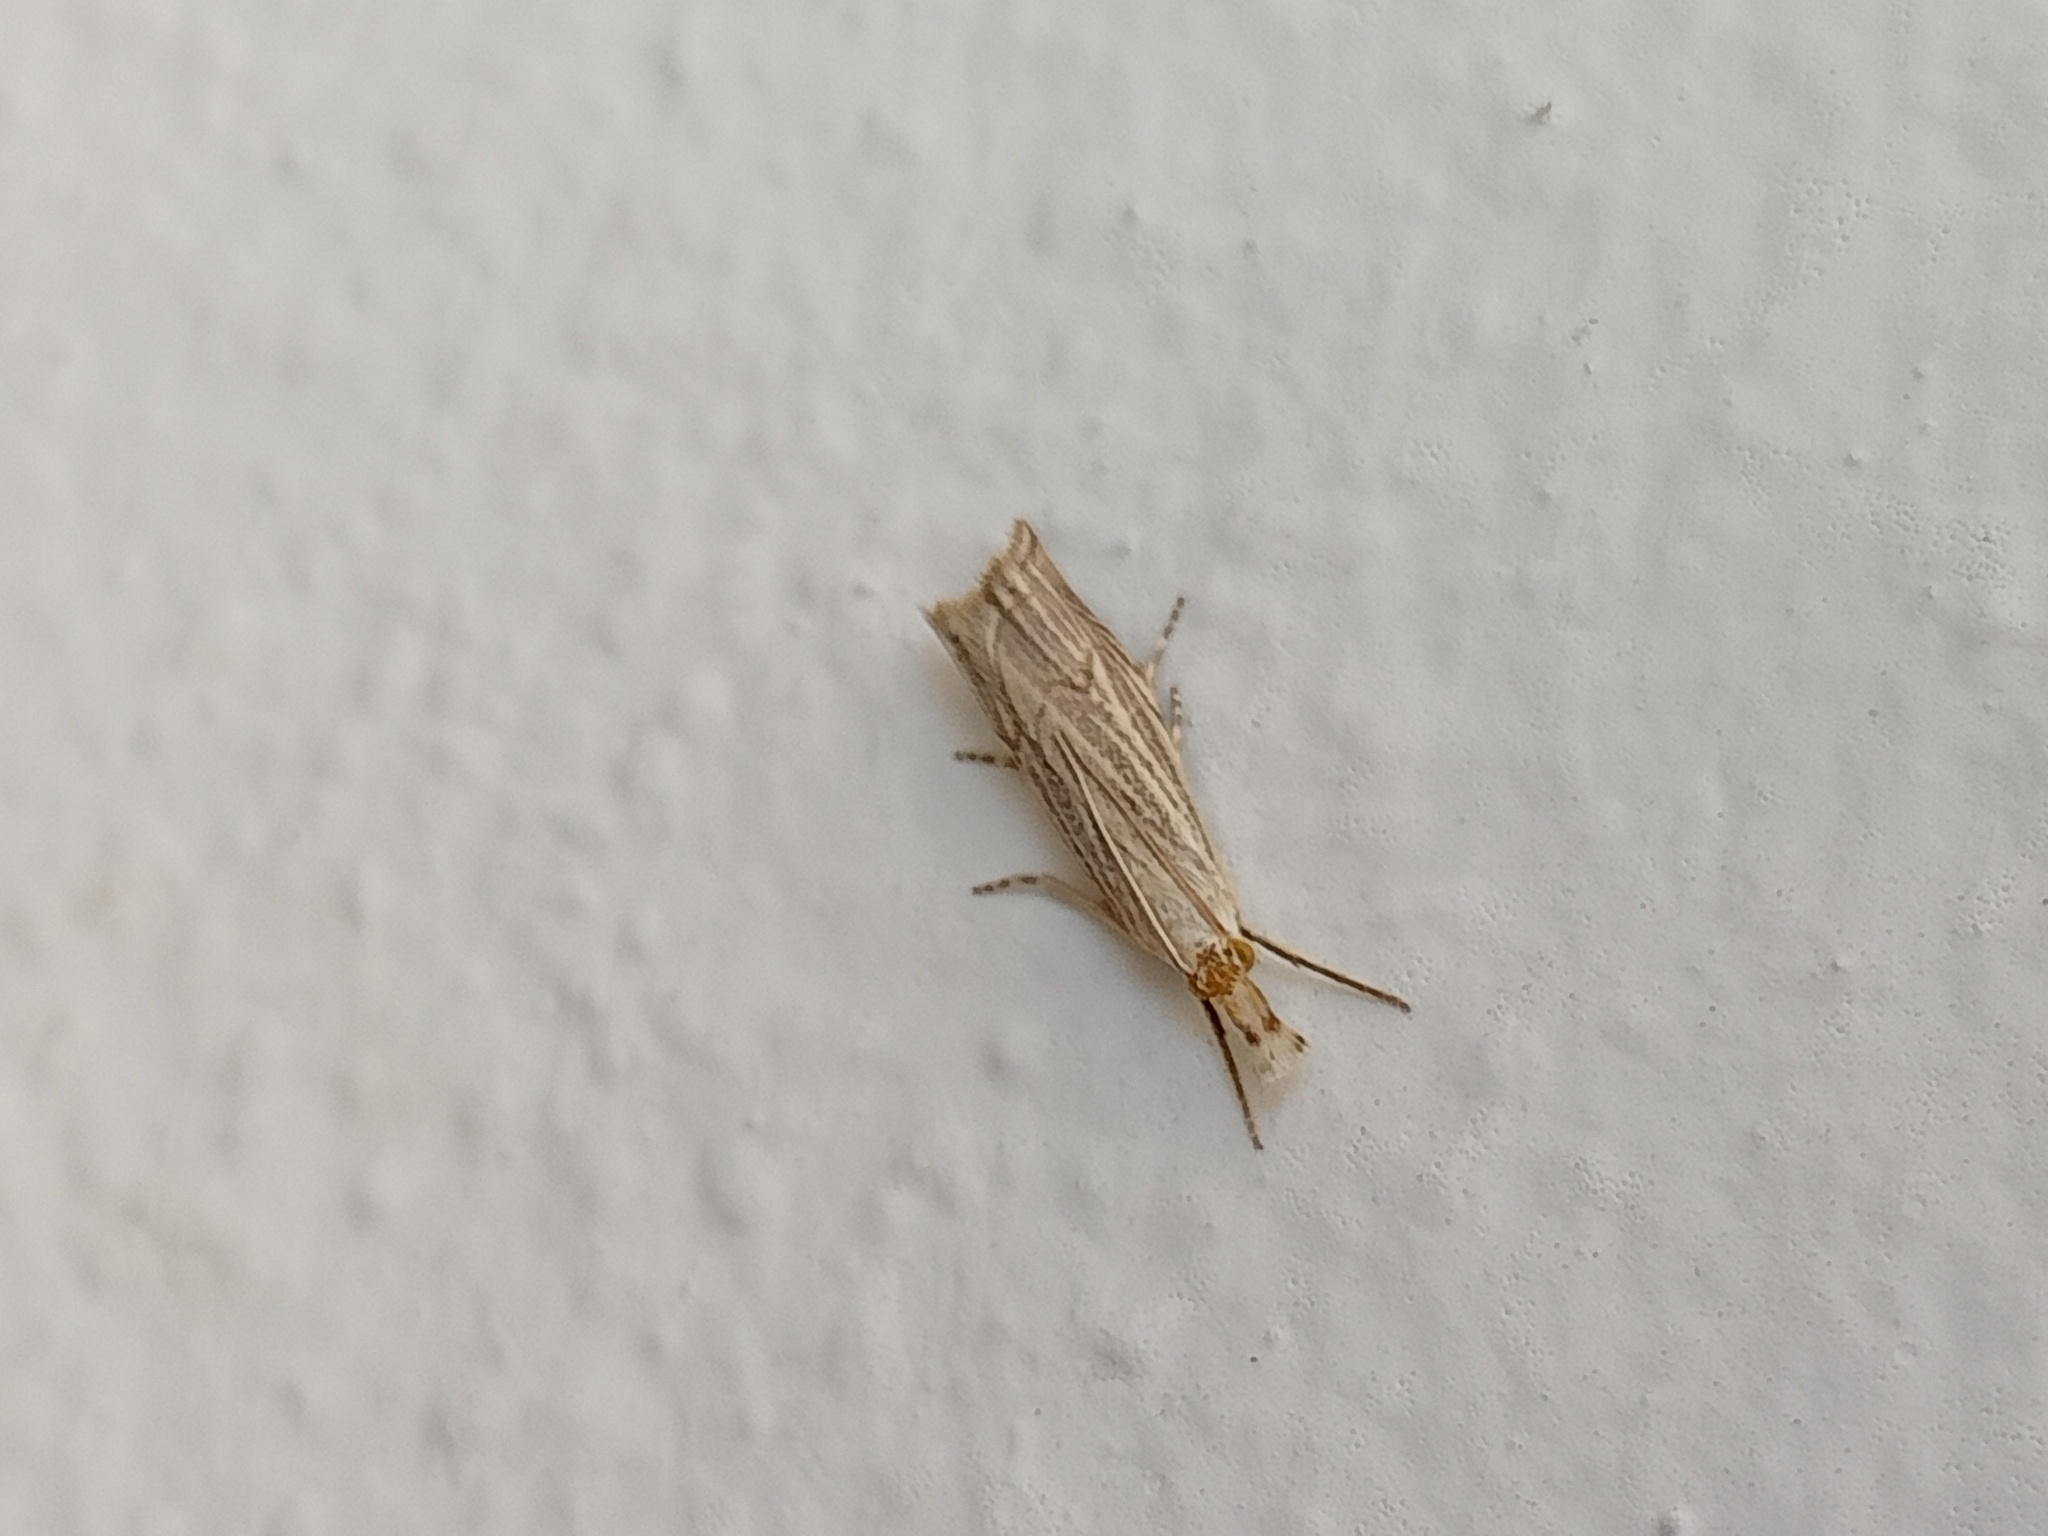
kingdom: Animalia
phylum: Arthropoda
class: Insecta
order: Lepidoptera
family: Crambidae
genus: Metacrambus
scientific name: Metacrambus carectellus
